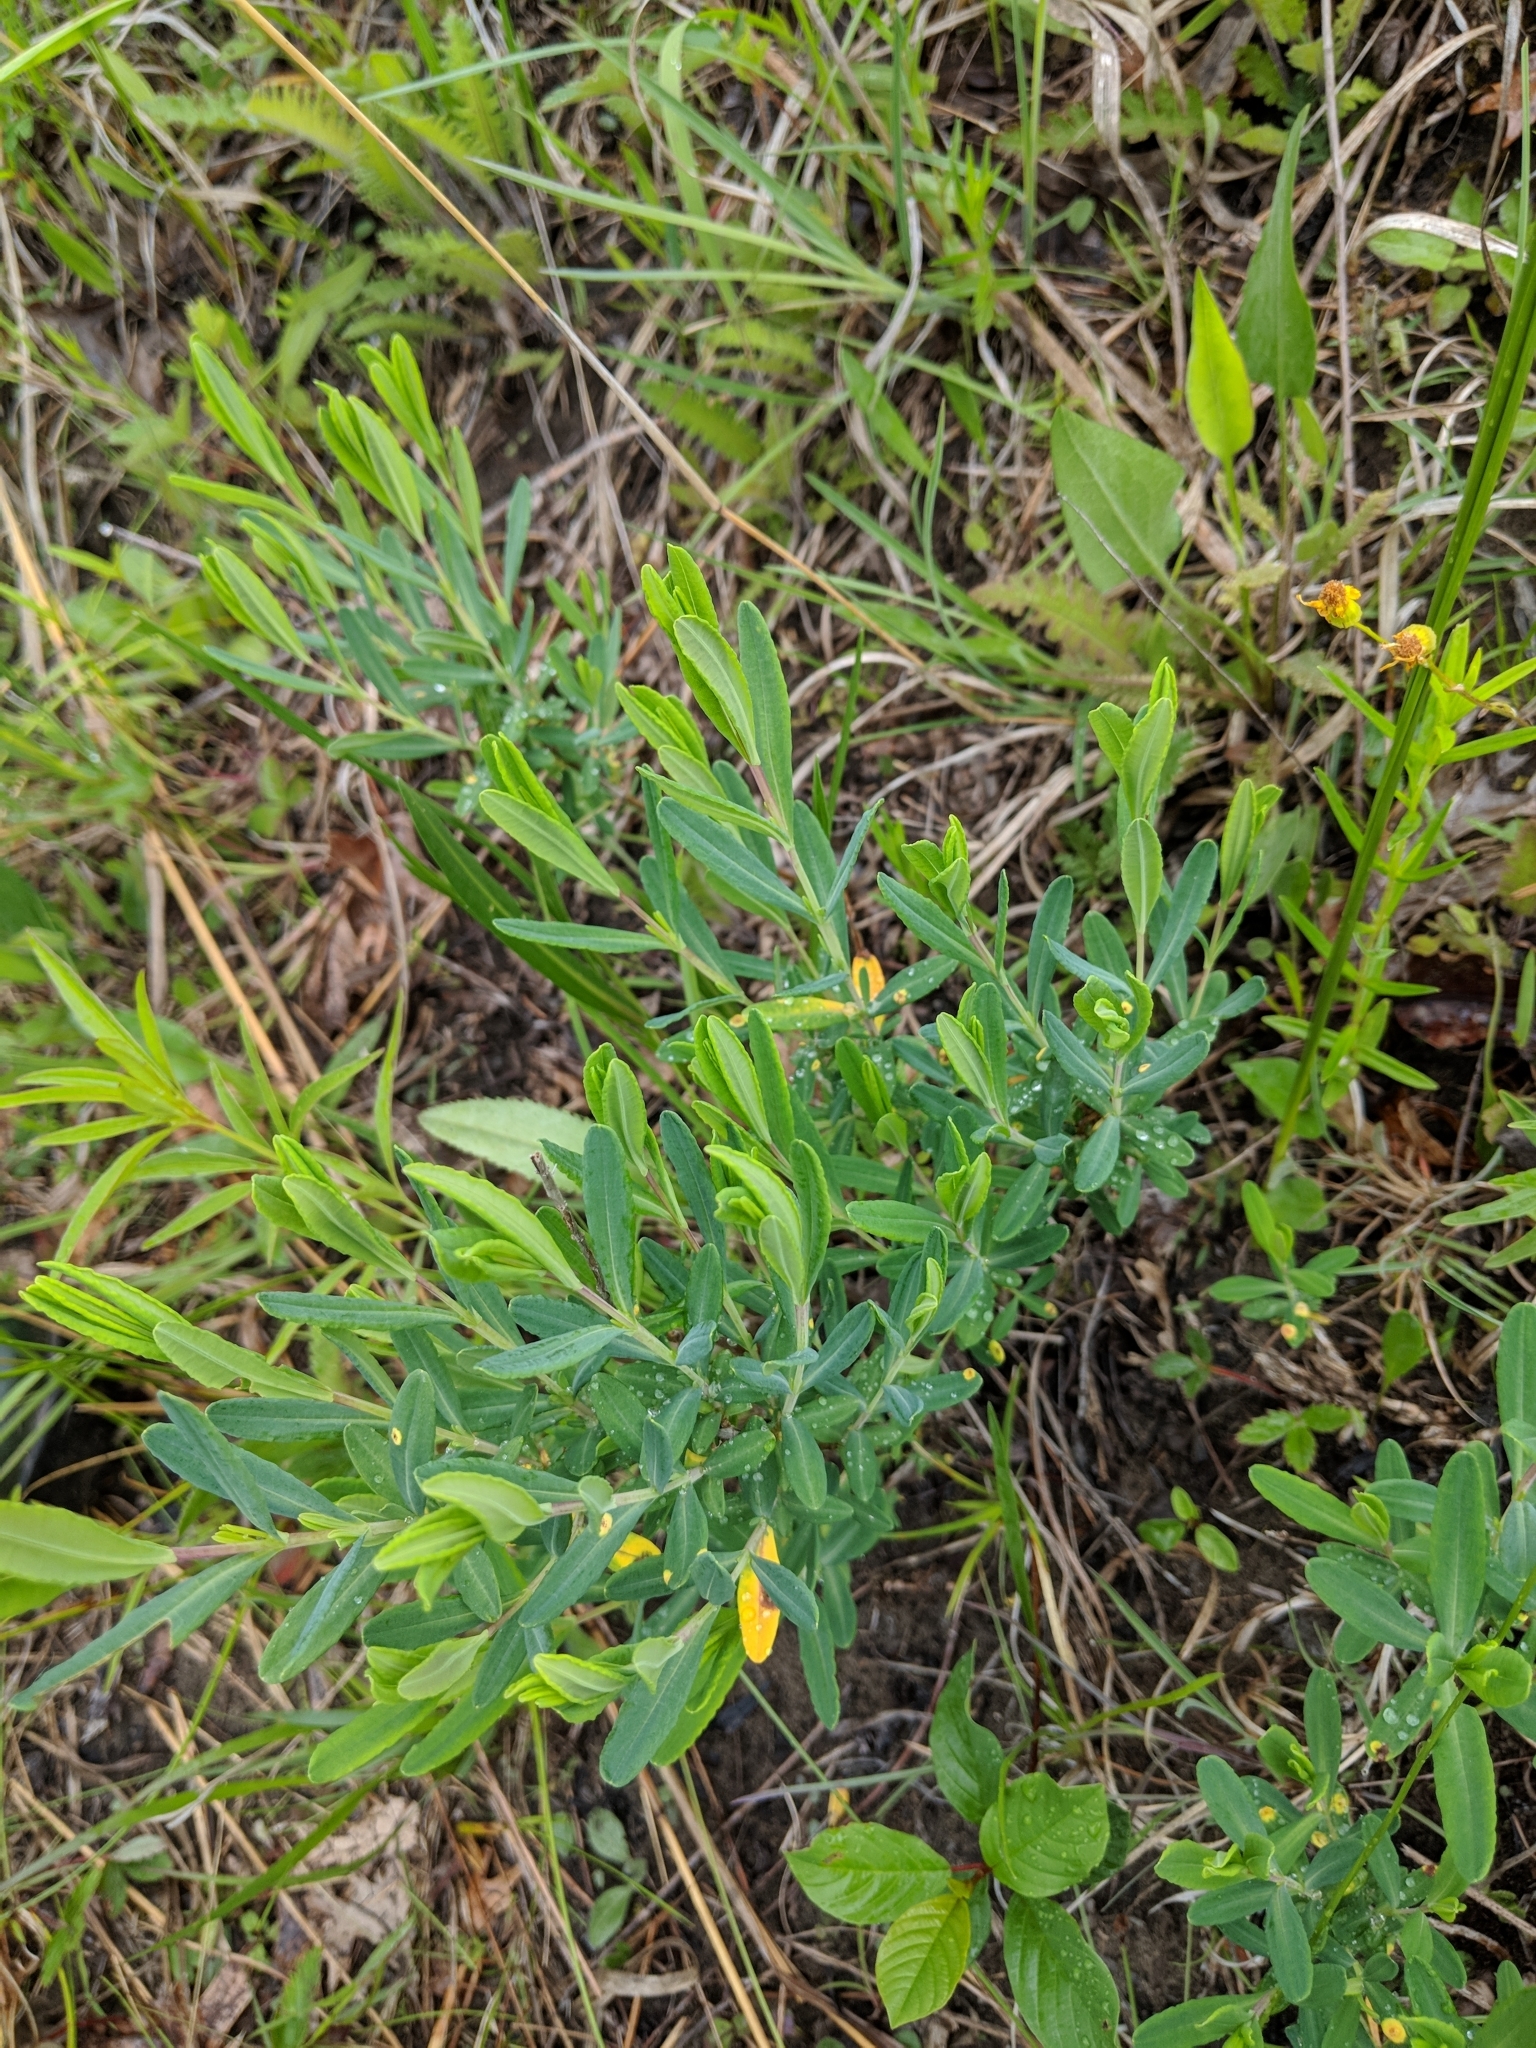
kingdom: Plantae
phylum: Tracheophyta
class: Magnoliopsida
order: Malpighiales
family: Hypericaceae
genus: Hypericum
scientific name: Hypericum kalmianum
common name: Kalm's st. john's-wort
